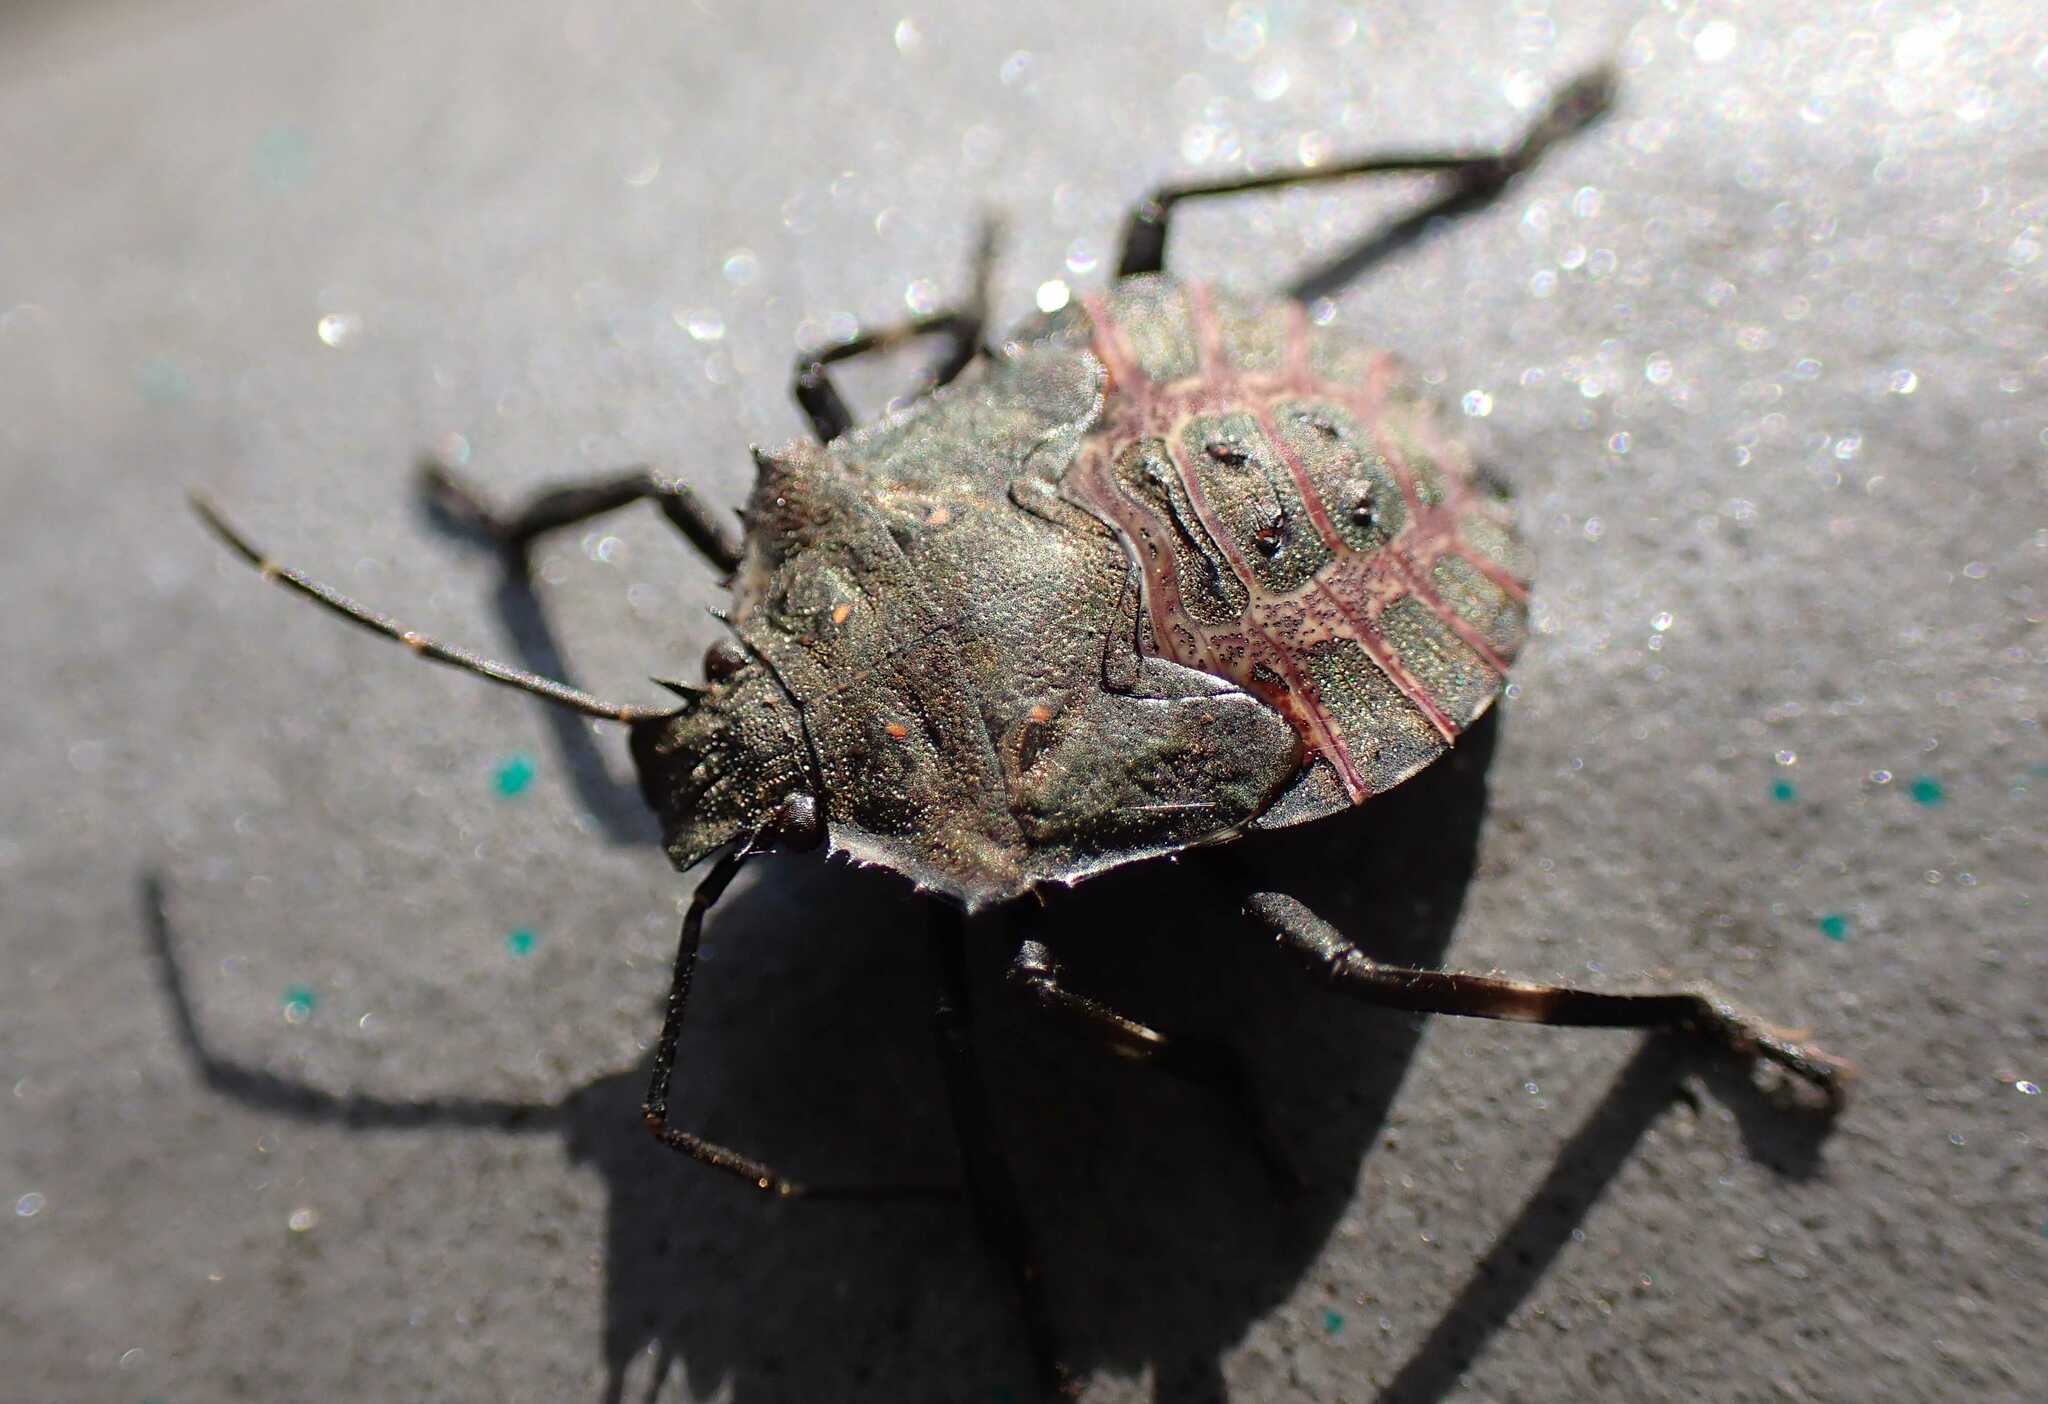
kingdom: Animalia
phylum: Arthropoda
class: Insecta
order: Hemiptera
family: Pentatomidae
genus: Halyomorpha
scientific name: Halyomorpha halys
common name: Brown marmorated stink bug
